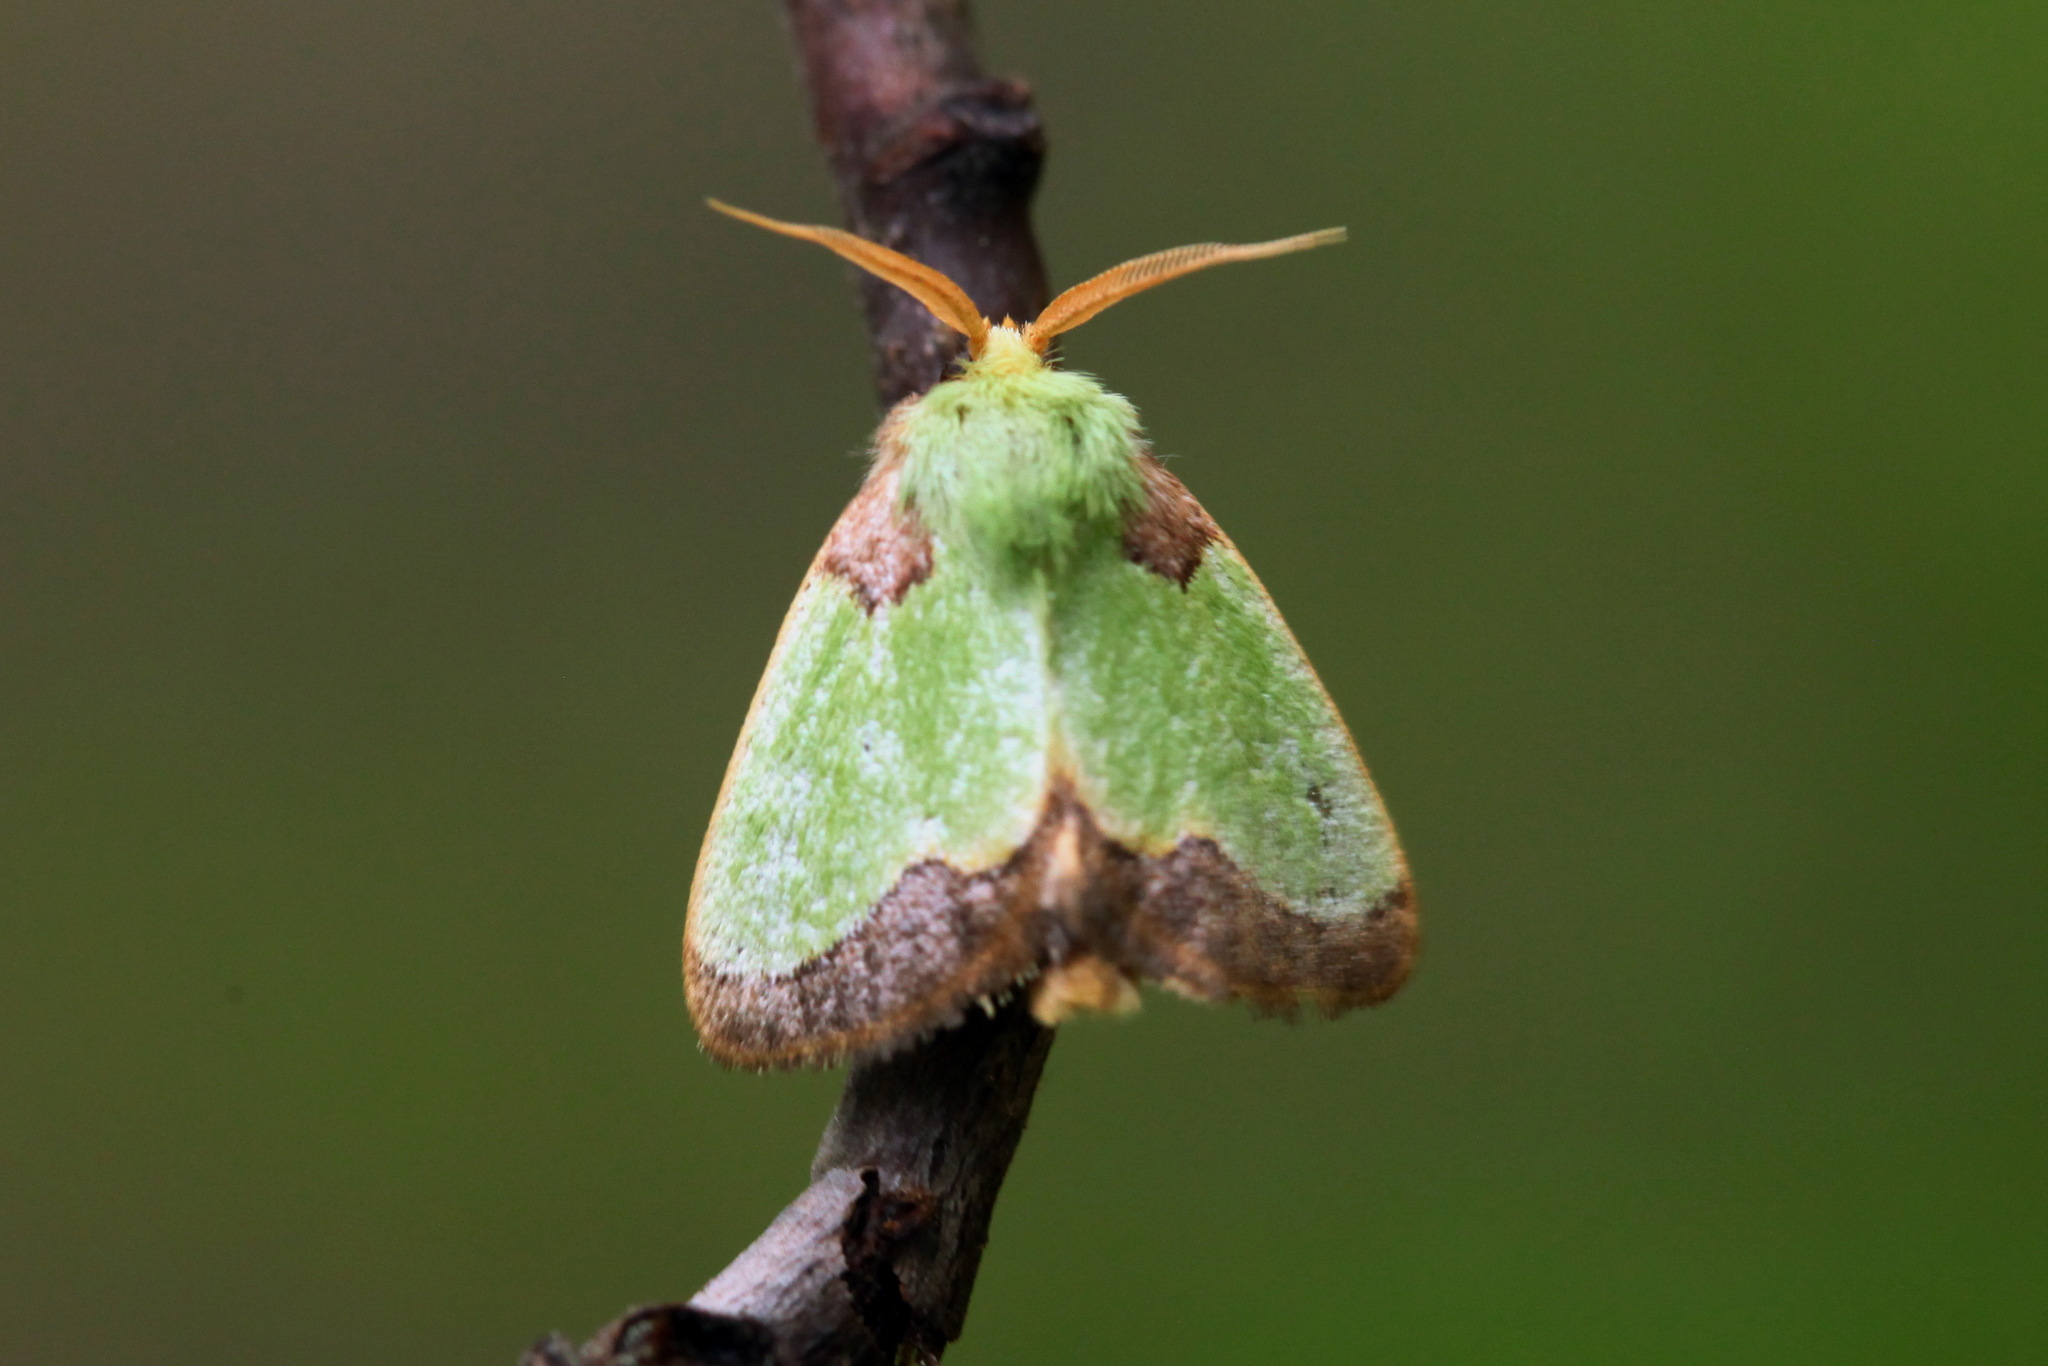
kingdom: Animalia
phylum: Arthropoda
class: Insecta
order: Lepidoptera
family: Limacodidae
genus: Parasa
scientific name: Parasa hilarula
